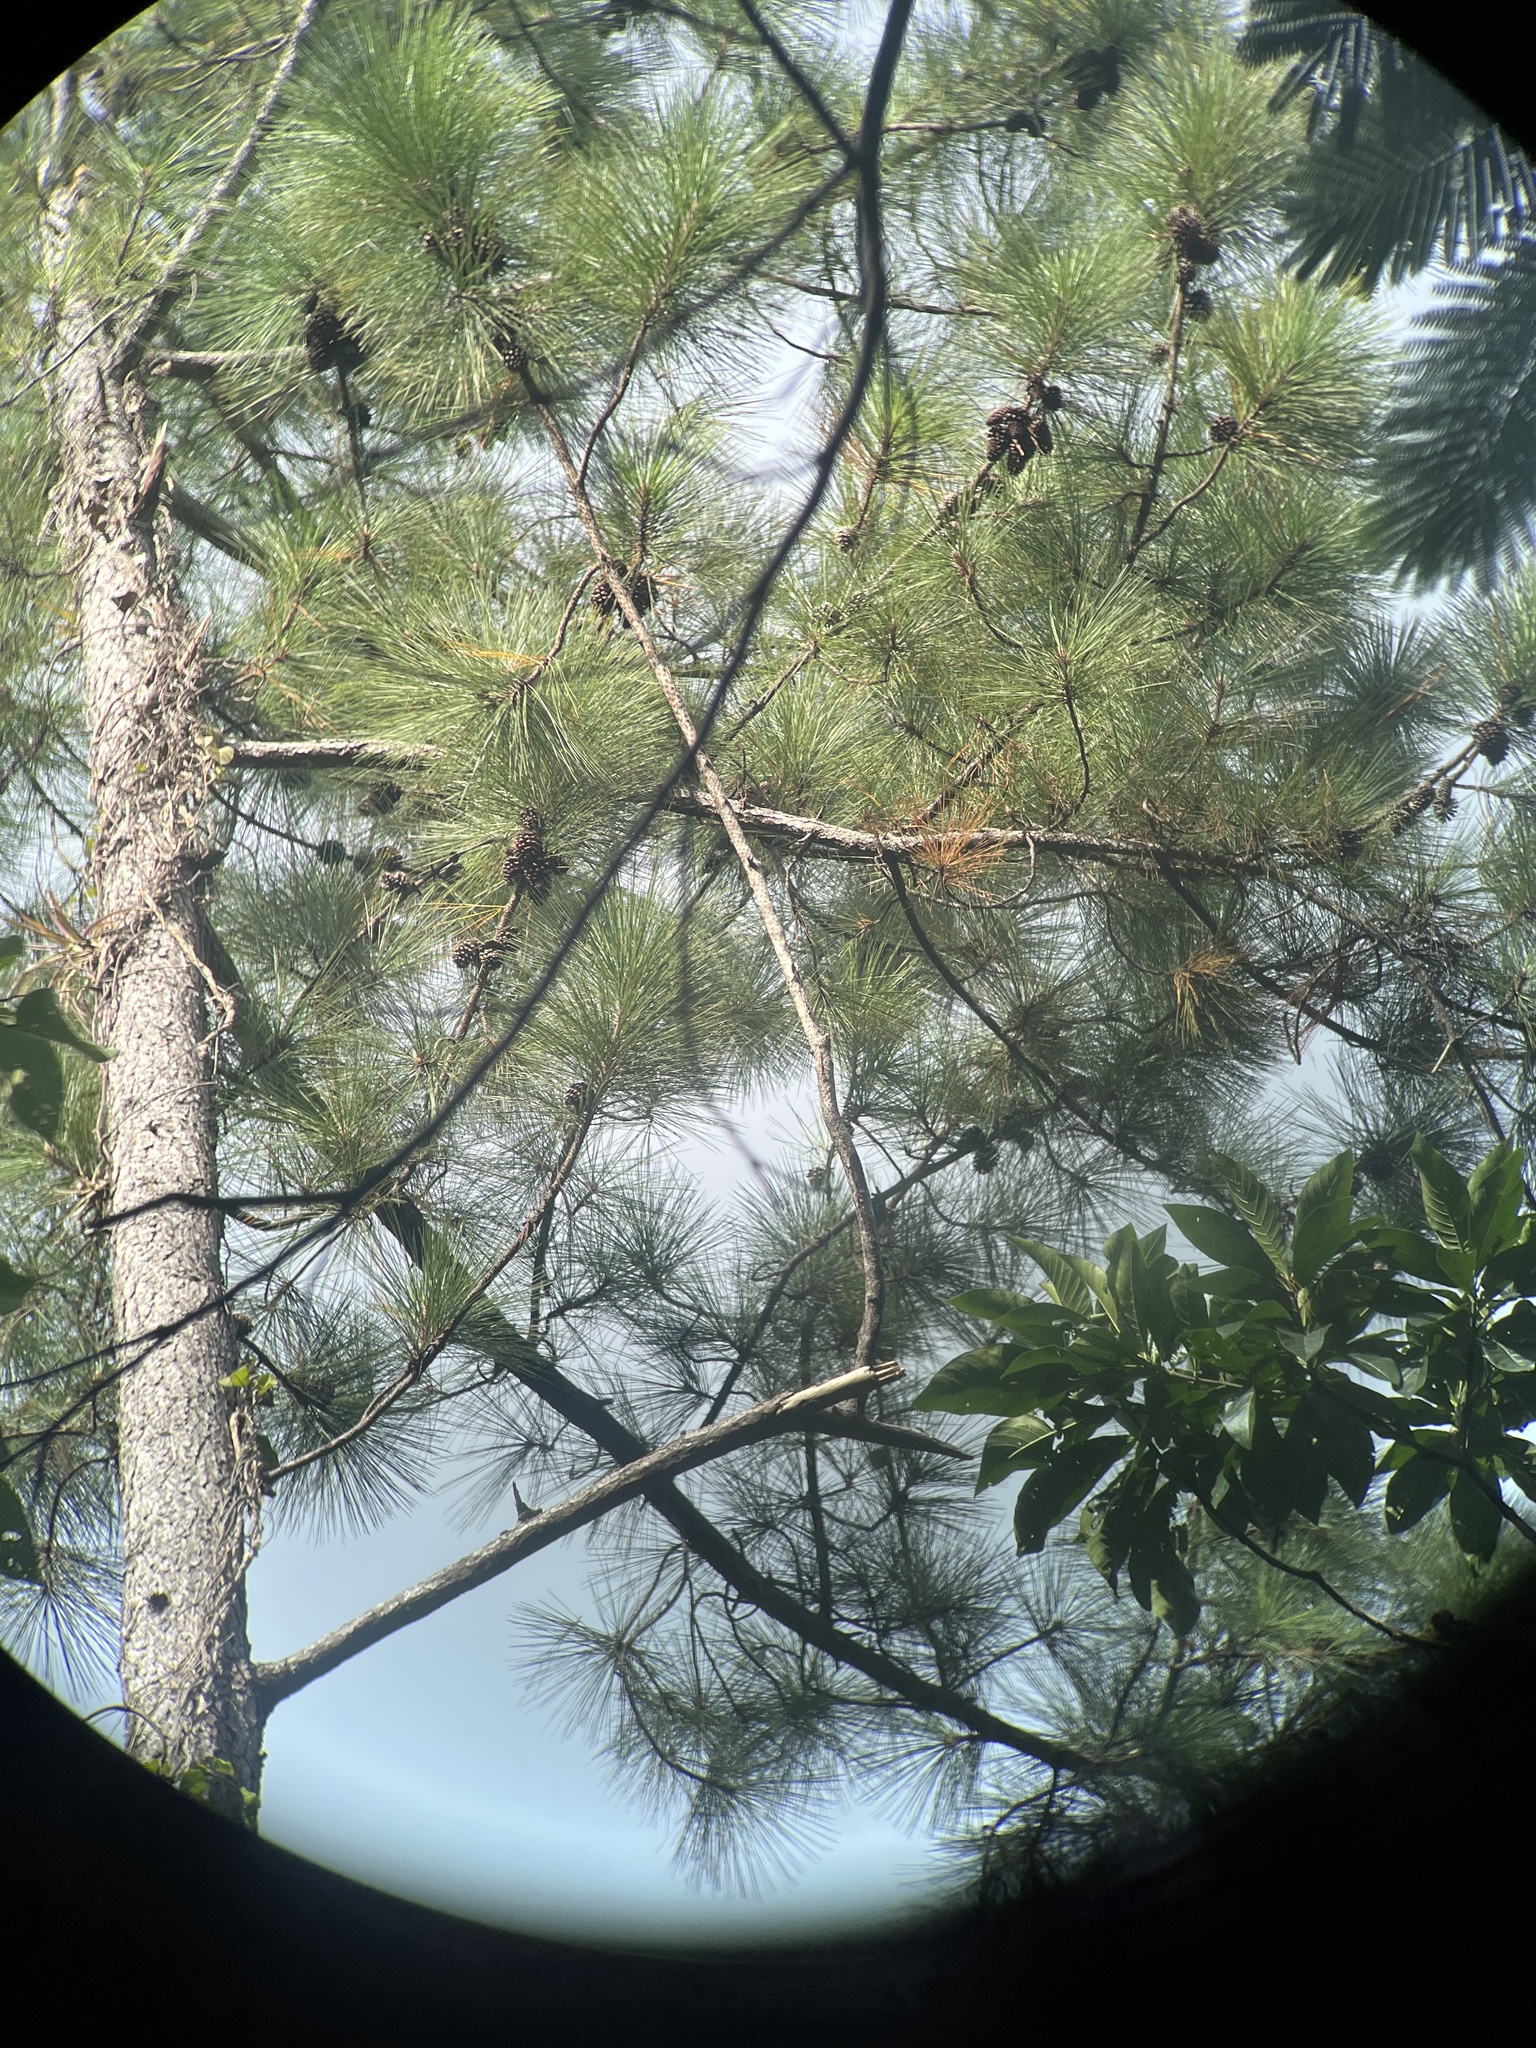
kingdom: Plantae
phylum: Tracheophyta
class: Pinopsida
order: Pinales
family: Pinaceae
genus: Pinus
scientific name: Pinus caribaea
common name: Caribbean pine
